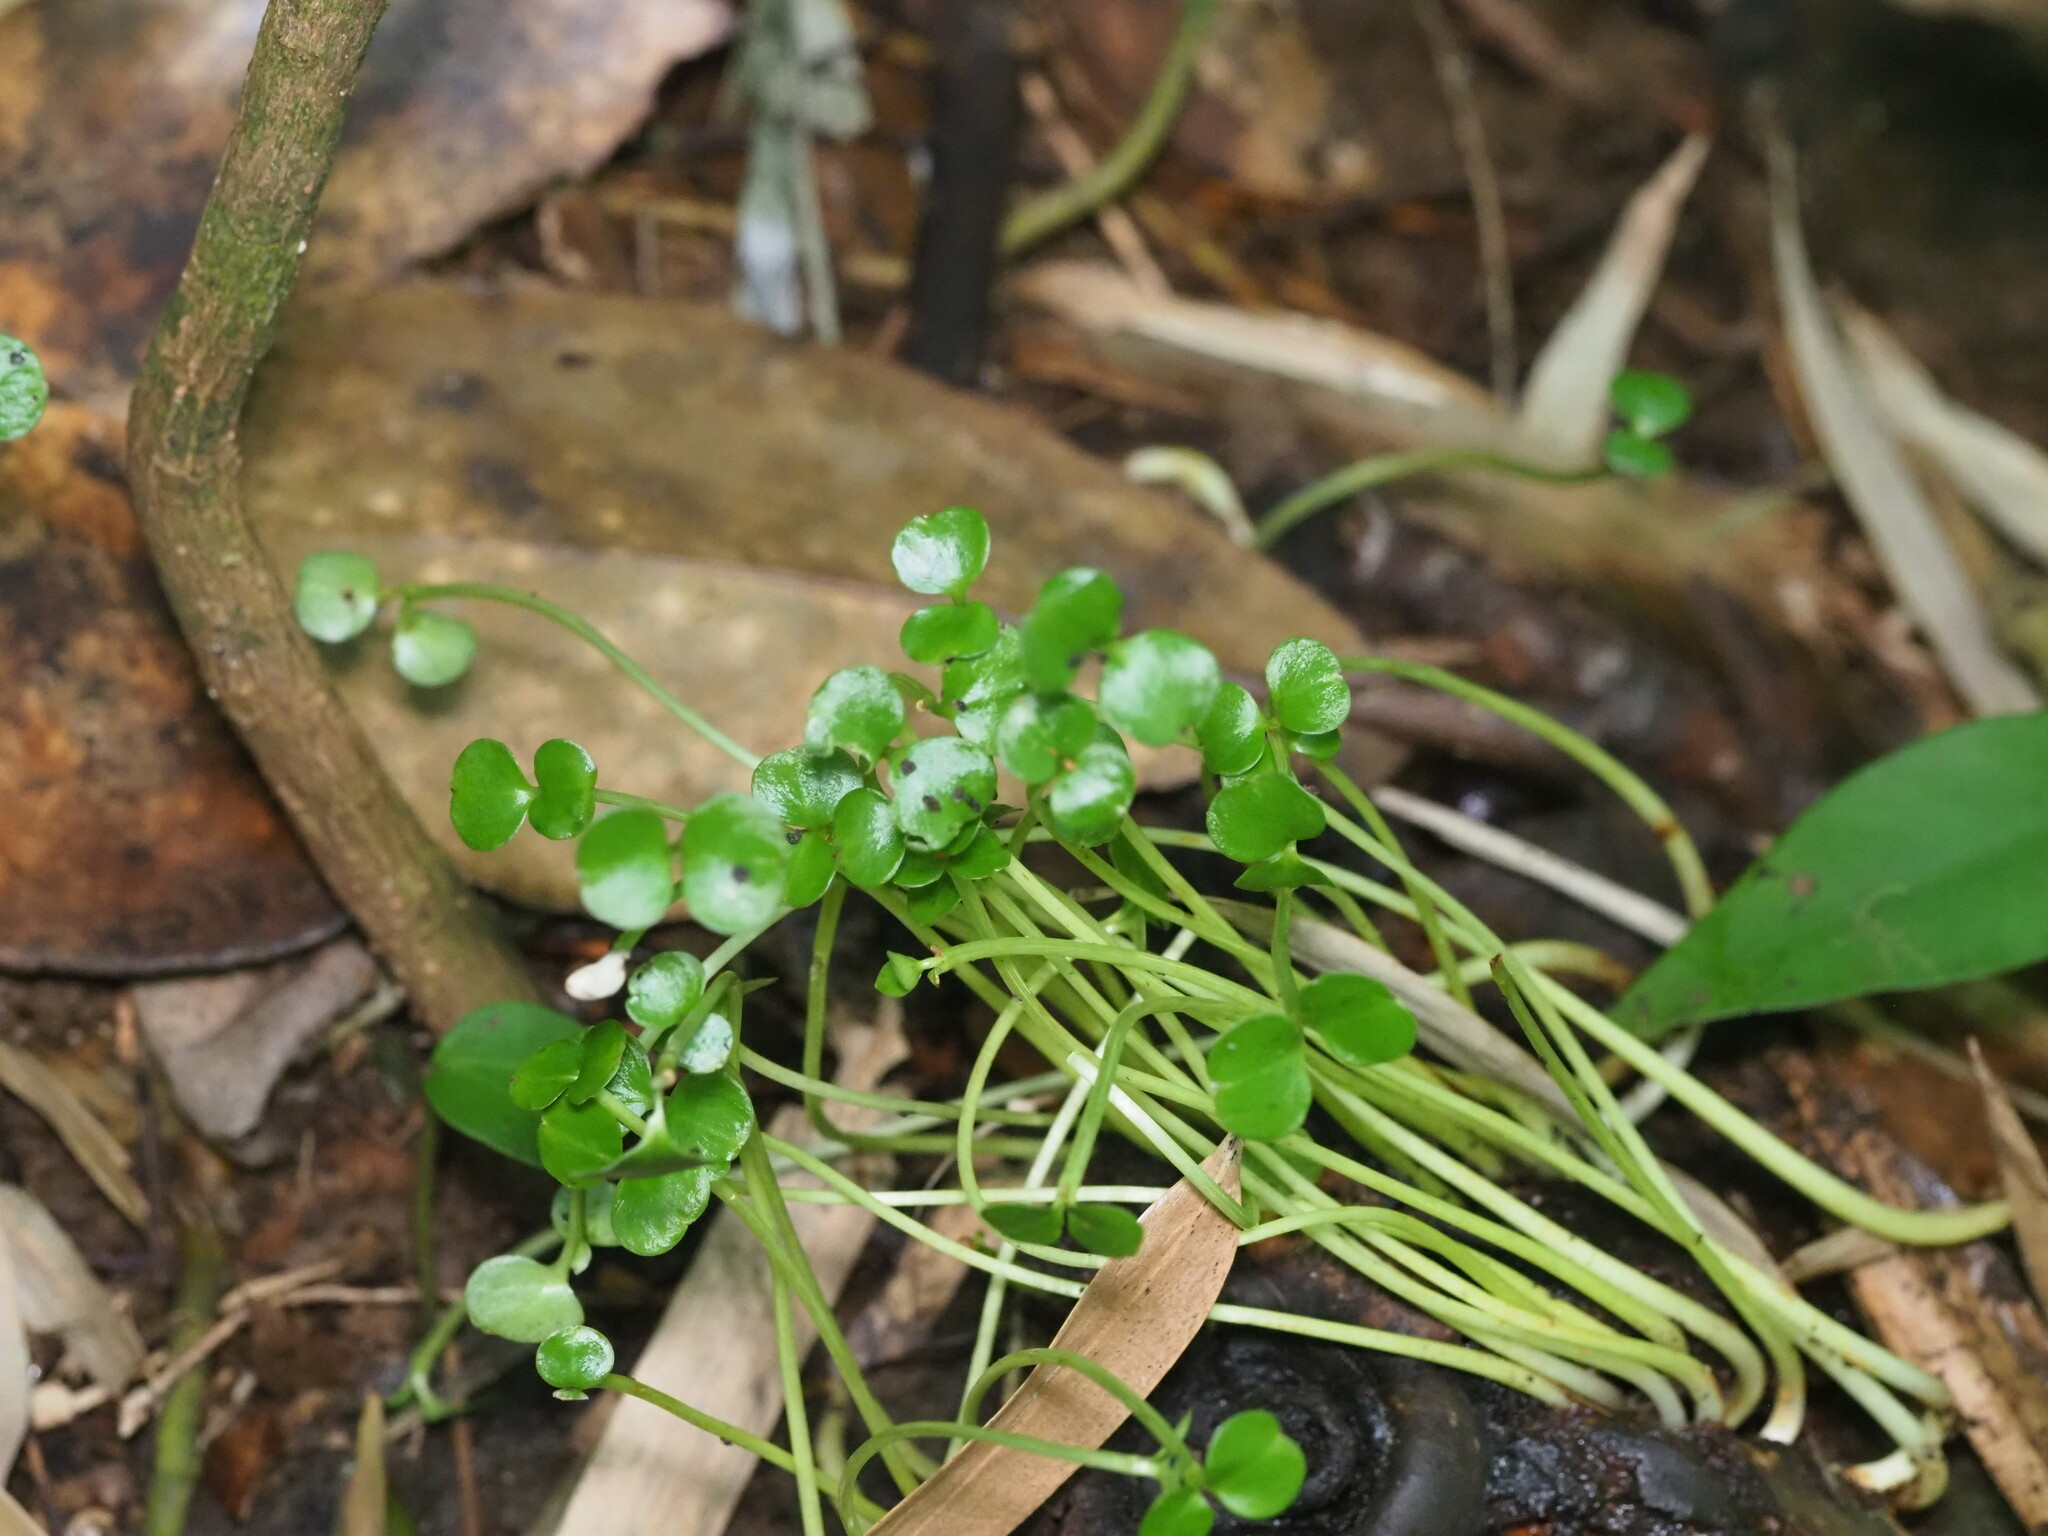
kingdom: Plantae
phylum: Tracheophyta
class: Magnoliopsida
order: Malpighiales
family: Clusiaceae
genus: Clusia
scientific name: Clusia rosea
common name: Scotch attorney
